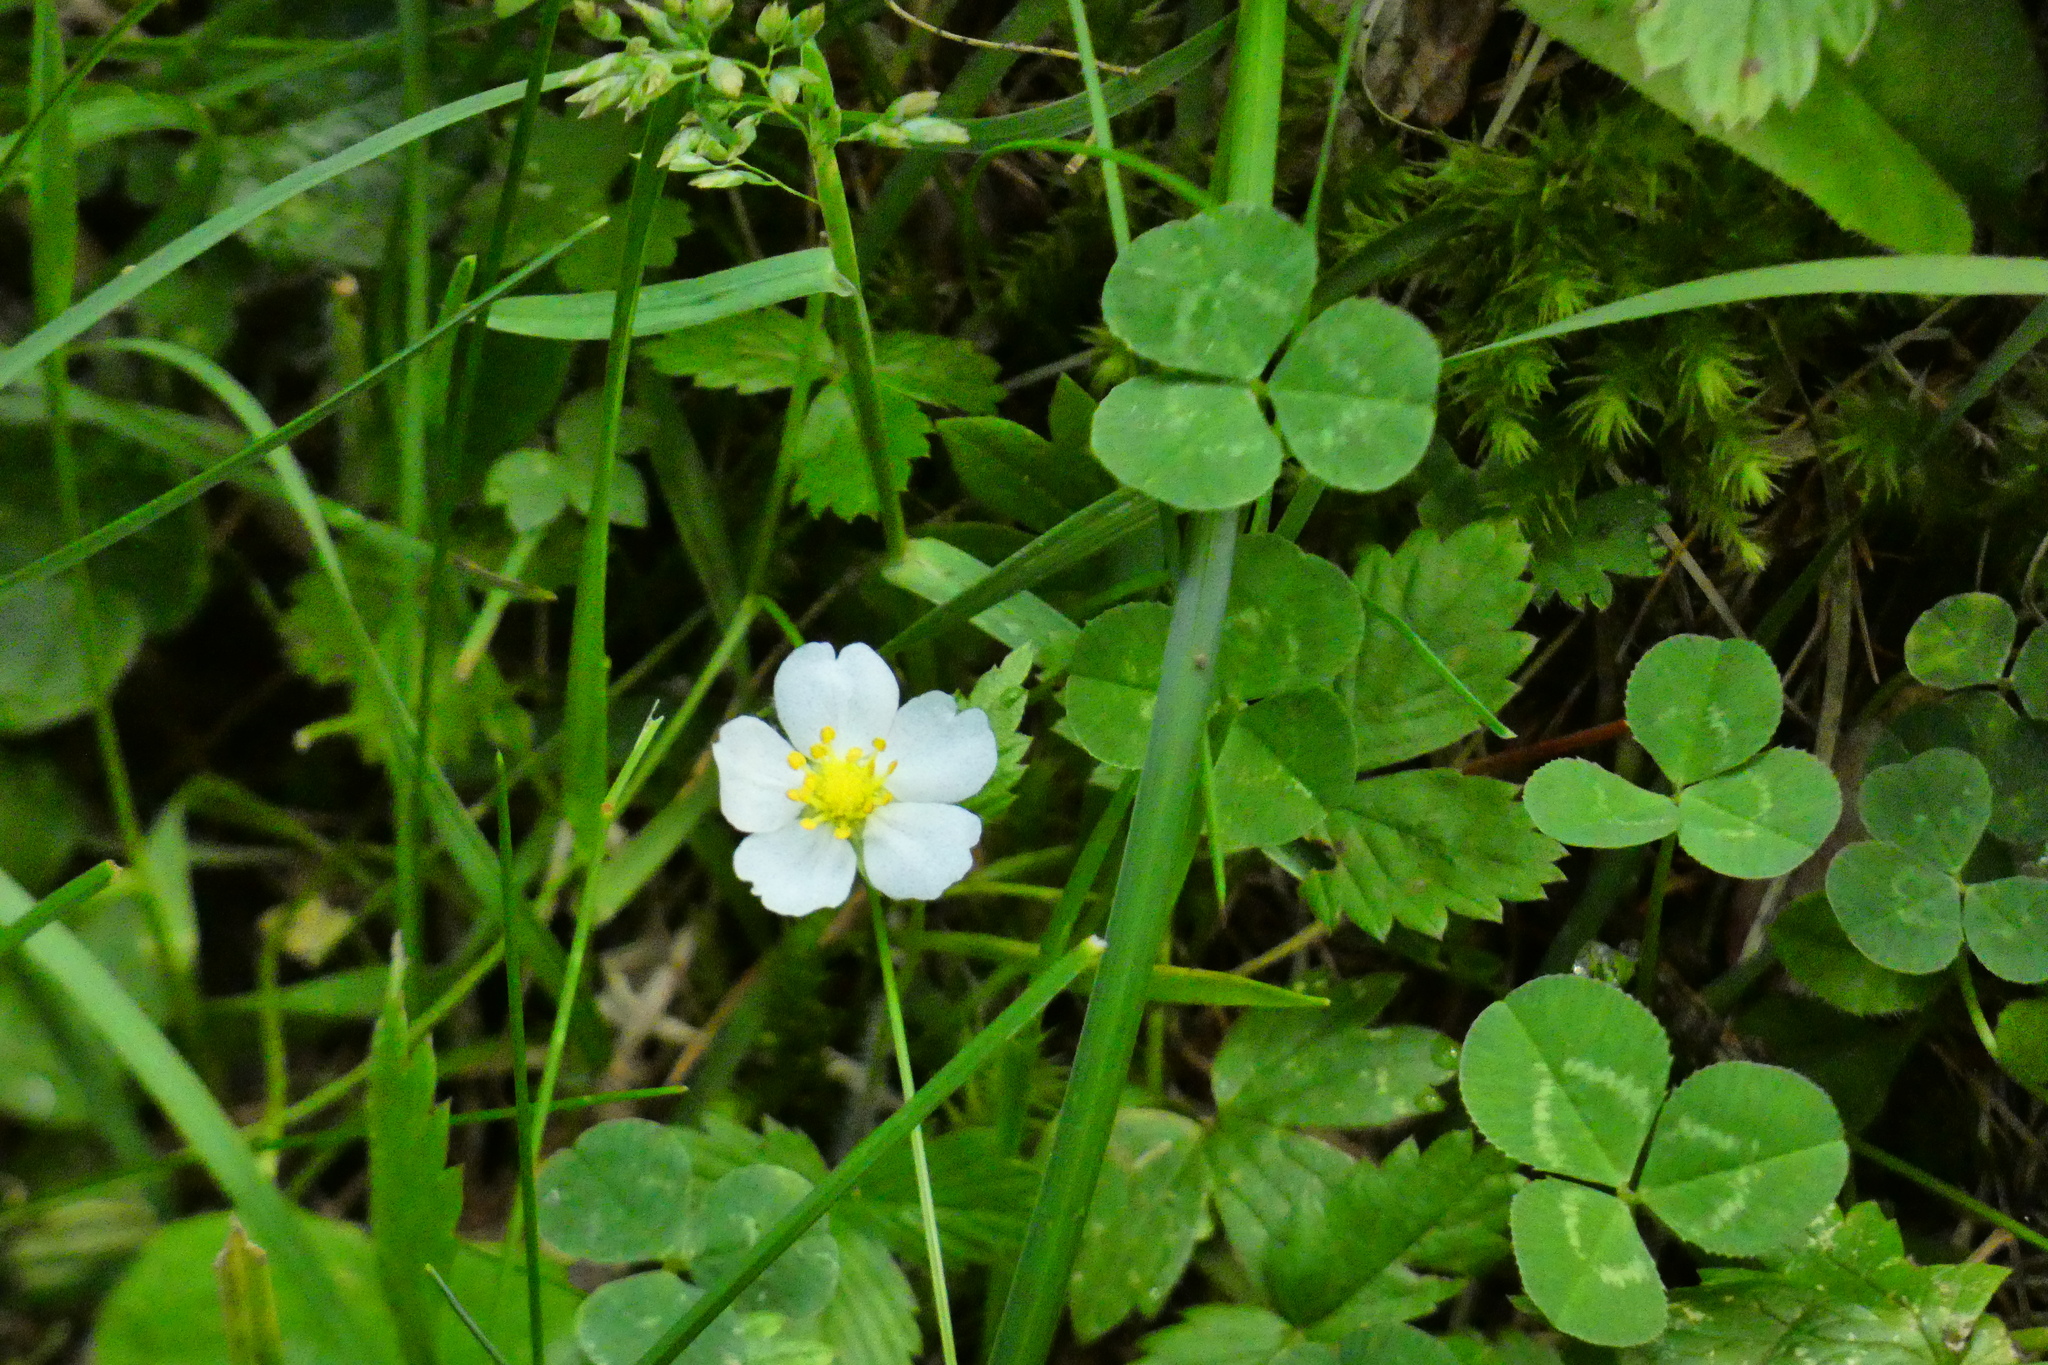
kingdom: Plantae
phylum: Tracheophyta
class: Magnoliopsida
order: Rosales
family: Rosaceae
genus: Fragaria
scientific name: Fragaria vesca
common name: Wild strawberry
